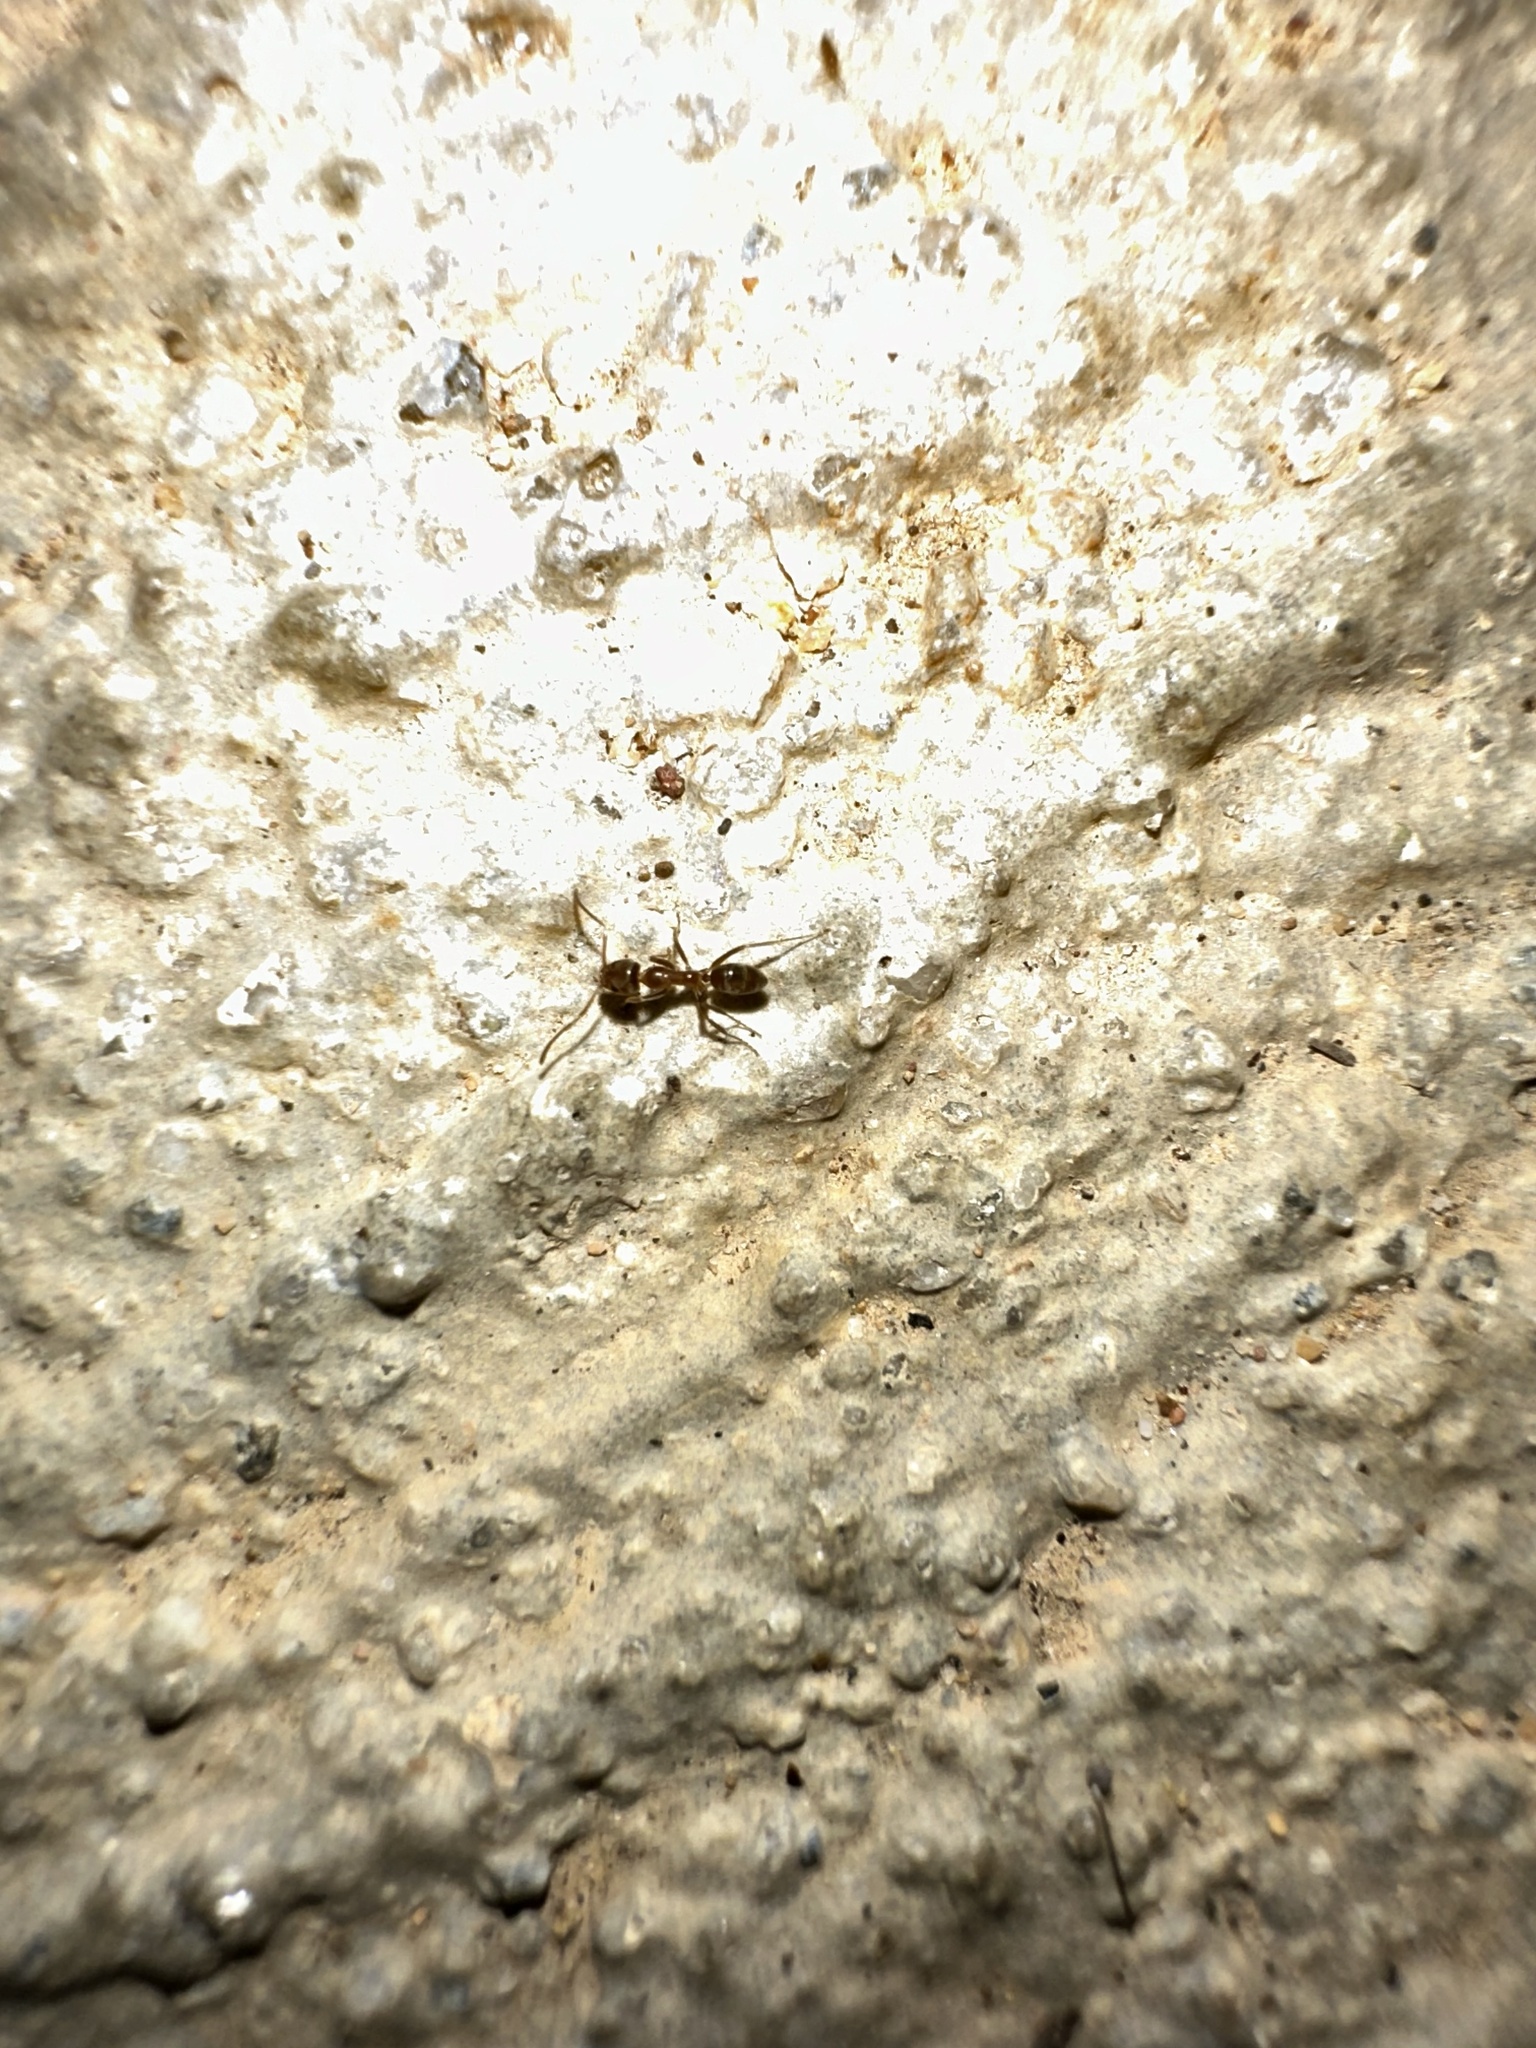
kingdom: Animalia
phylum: Arthropoda
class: Insecta
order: Hymenoptera
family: Formicidae
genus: Linepithema
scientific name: Linepithema humile
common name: Argentine ant
